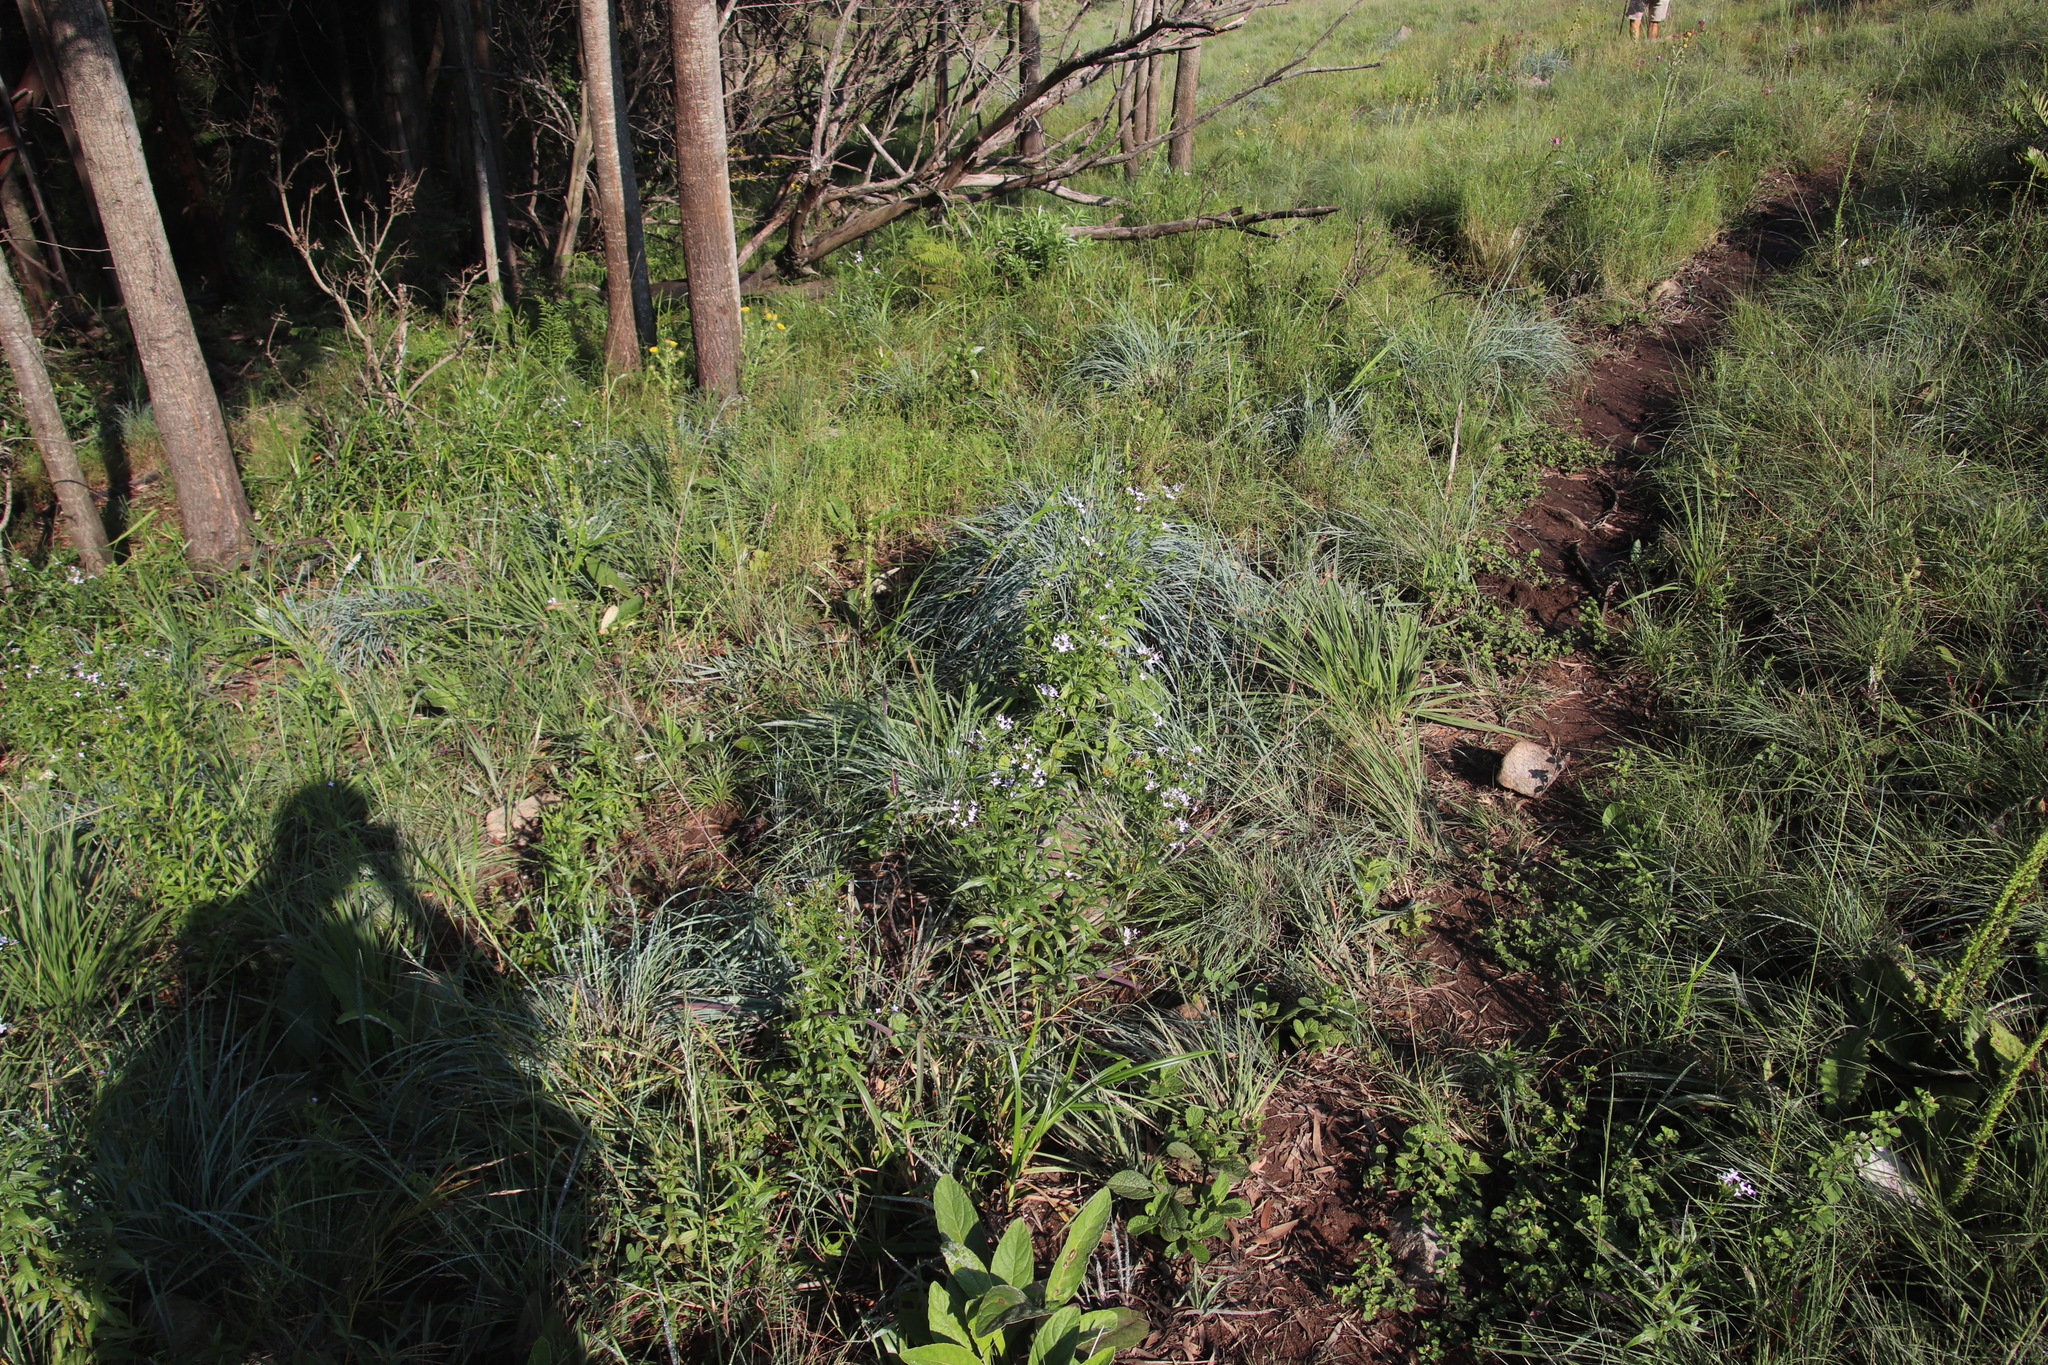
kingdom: Plantae
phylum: Tracheophyta
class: Magnoliopsida
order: Gentianales
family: Rubiaceae
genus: Conostomium
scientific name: Conostomium natalense
